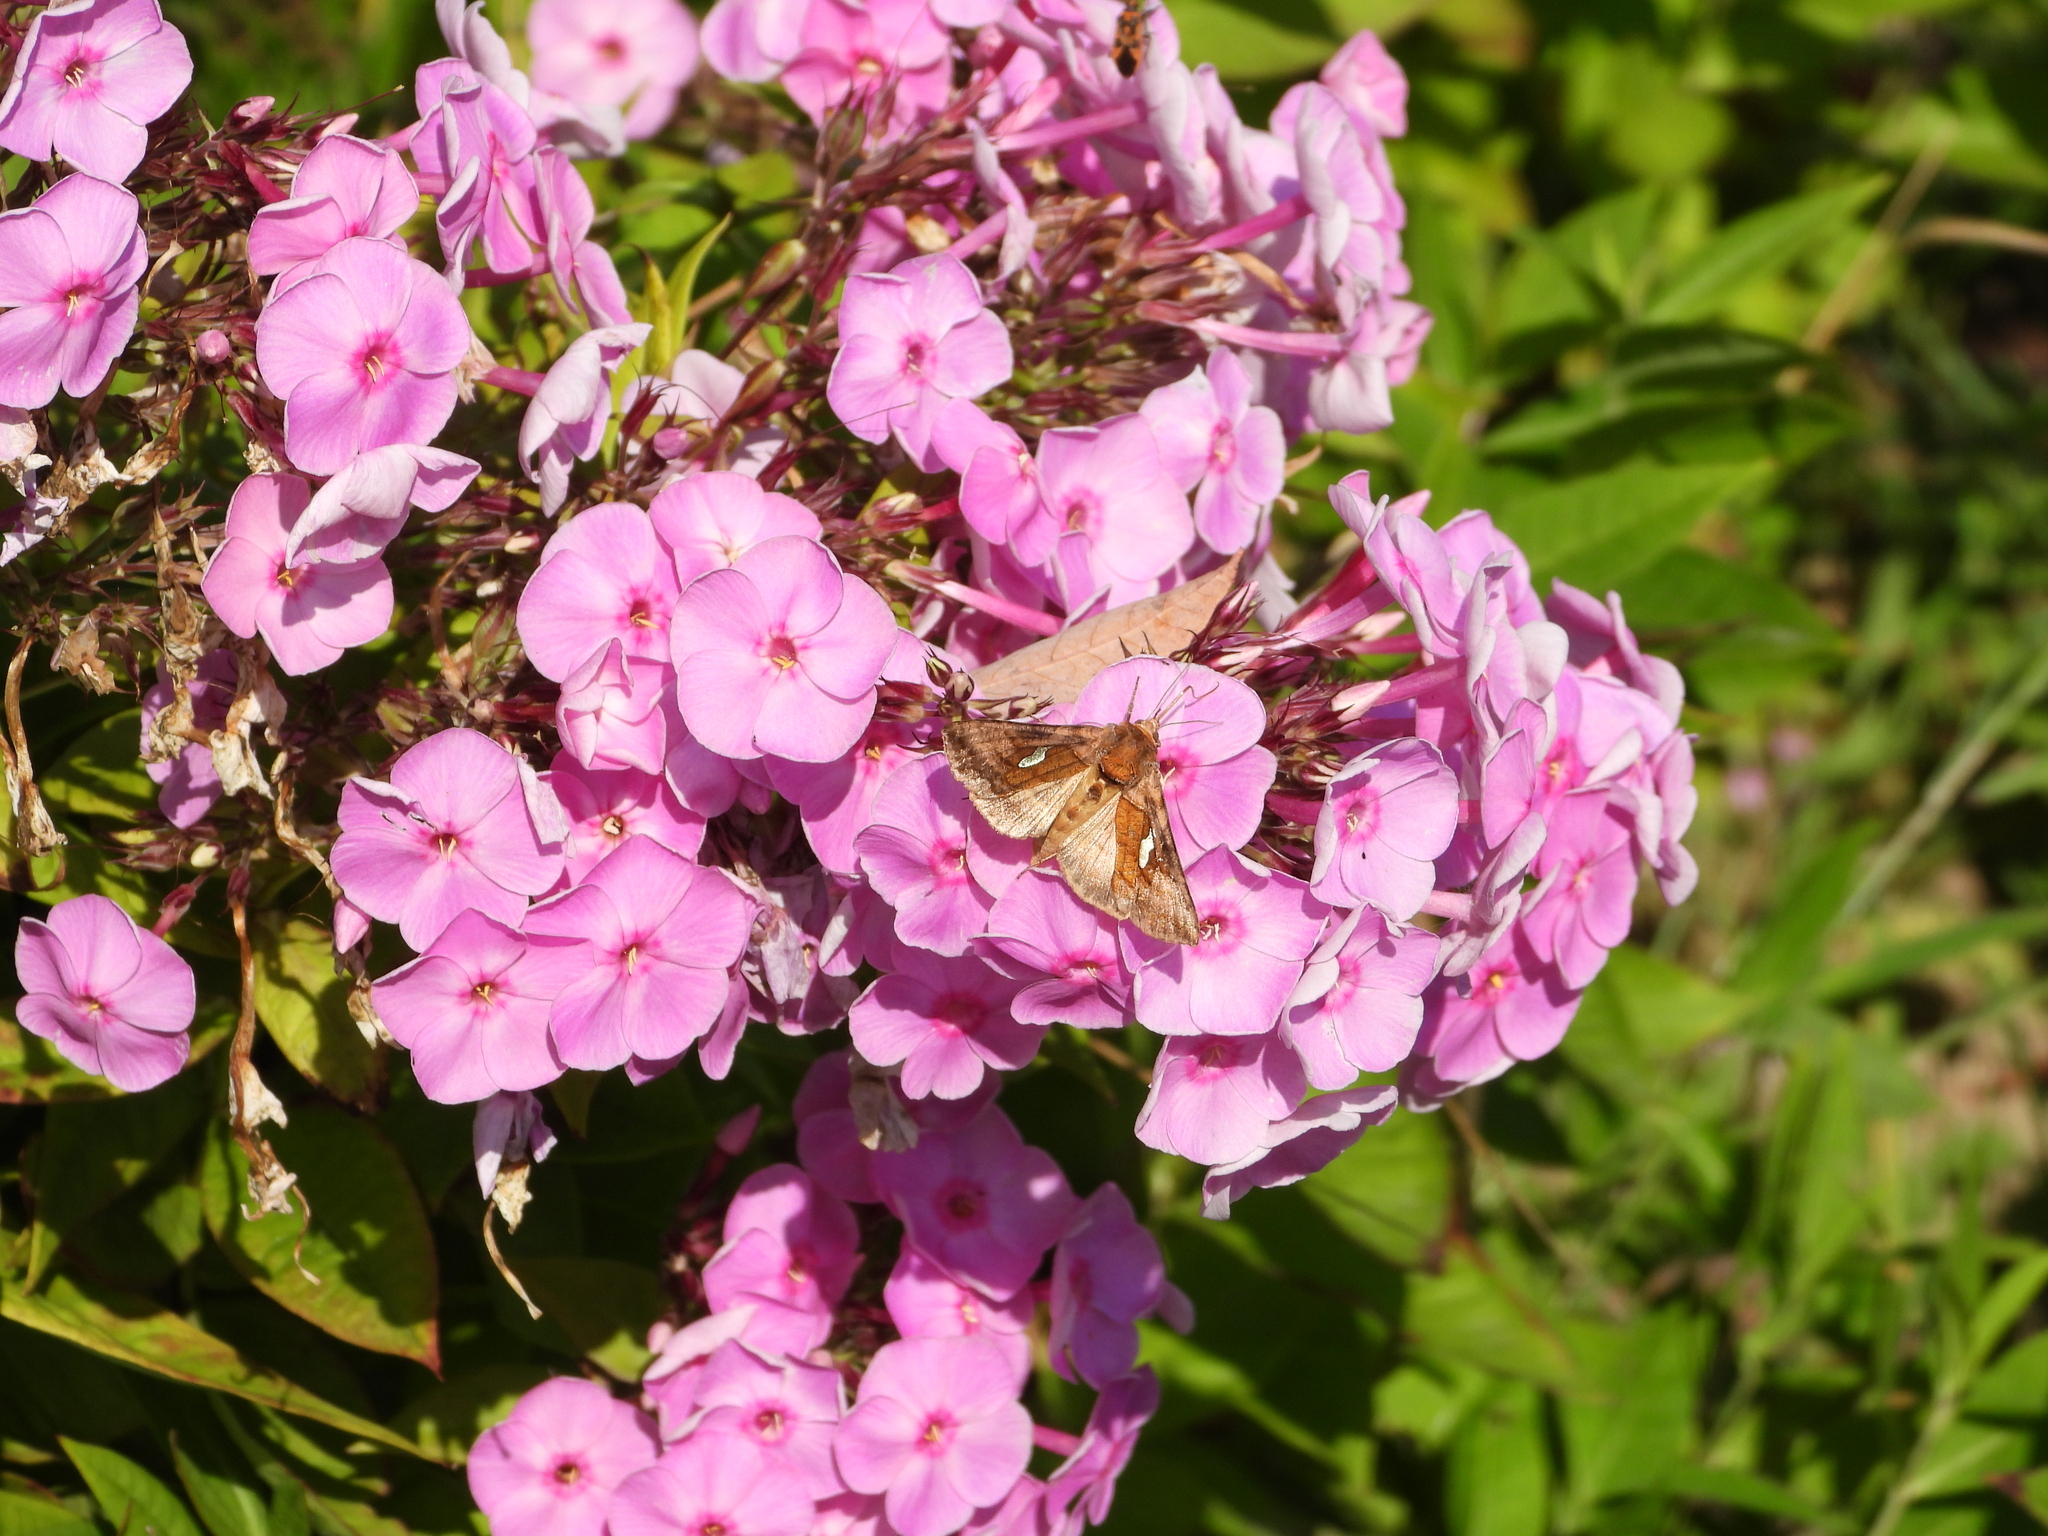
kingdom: Animalia
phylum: Arthropoda
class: Insecta
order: Lepidoptera
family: Noctuidae
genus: Autographa
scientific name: Autographa excelsa
